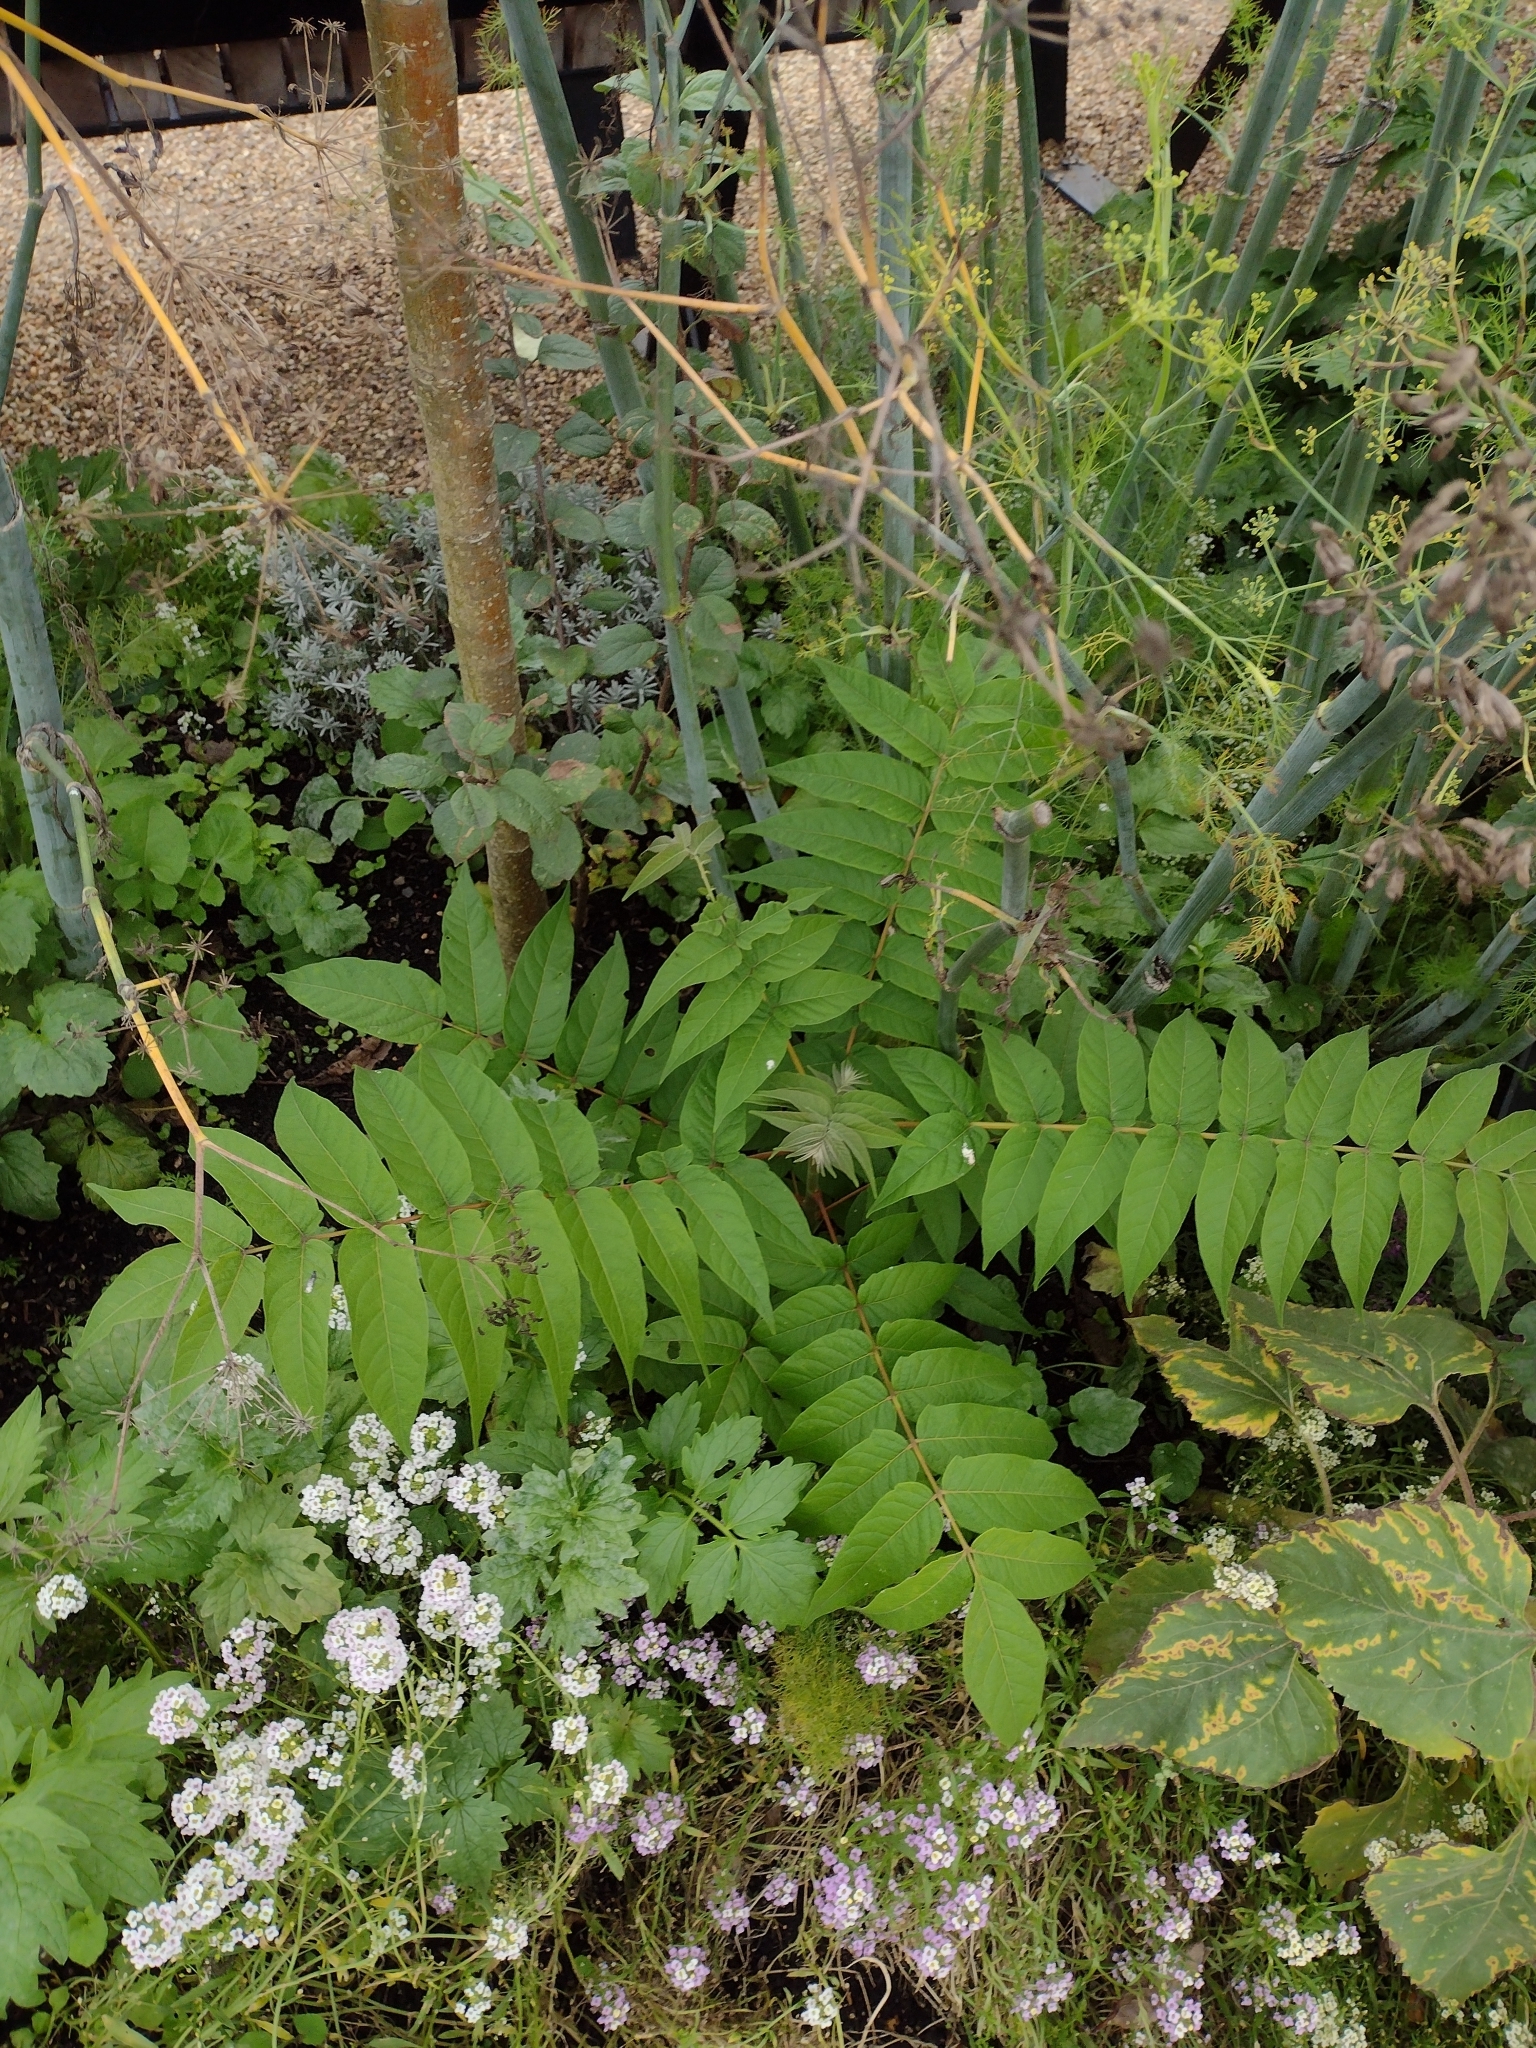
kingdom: Plantae
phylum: Tracheophyta
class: Magnoliopsida
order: Sapindales
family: Simaroubaceae
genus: Ailanthus
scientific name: Ailanthus altissima
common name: Tree-of-heaven
